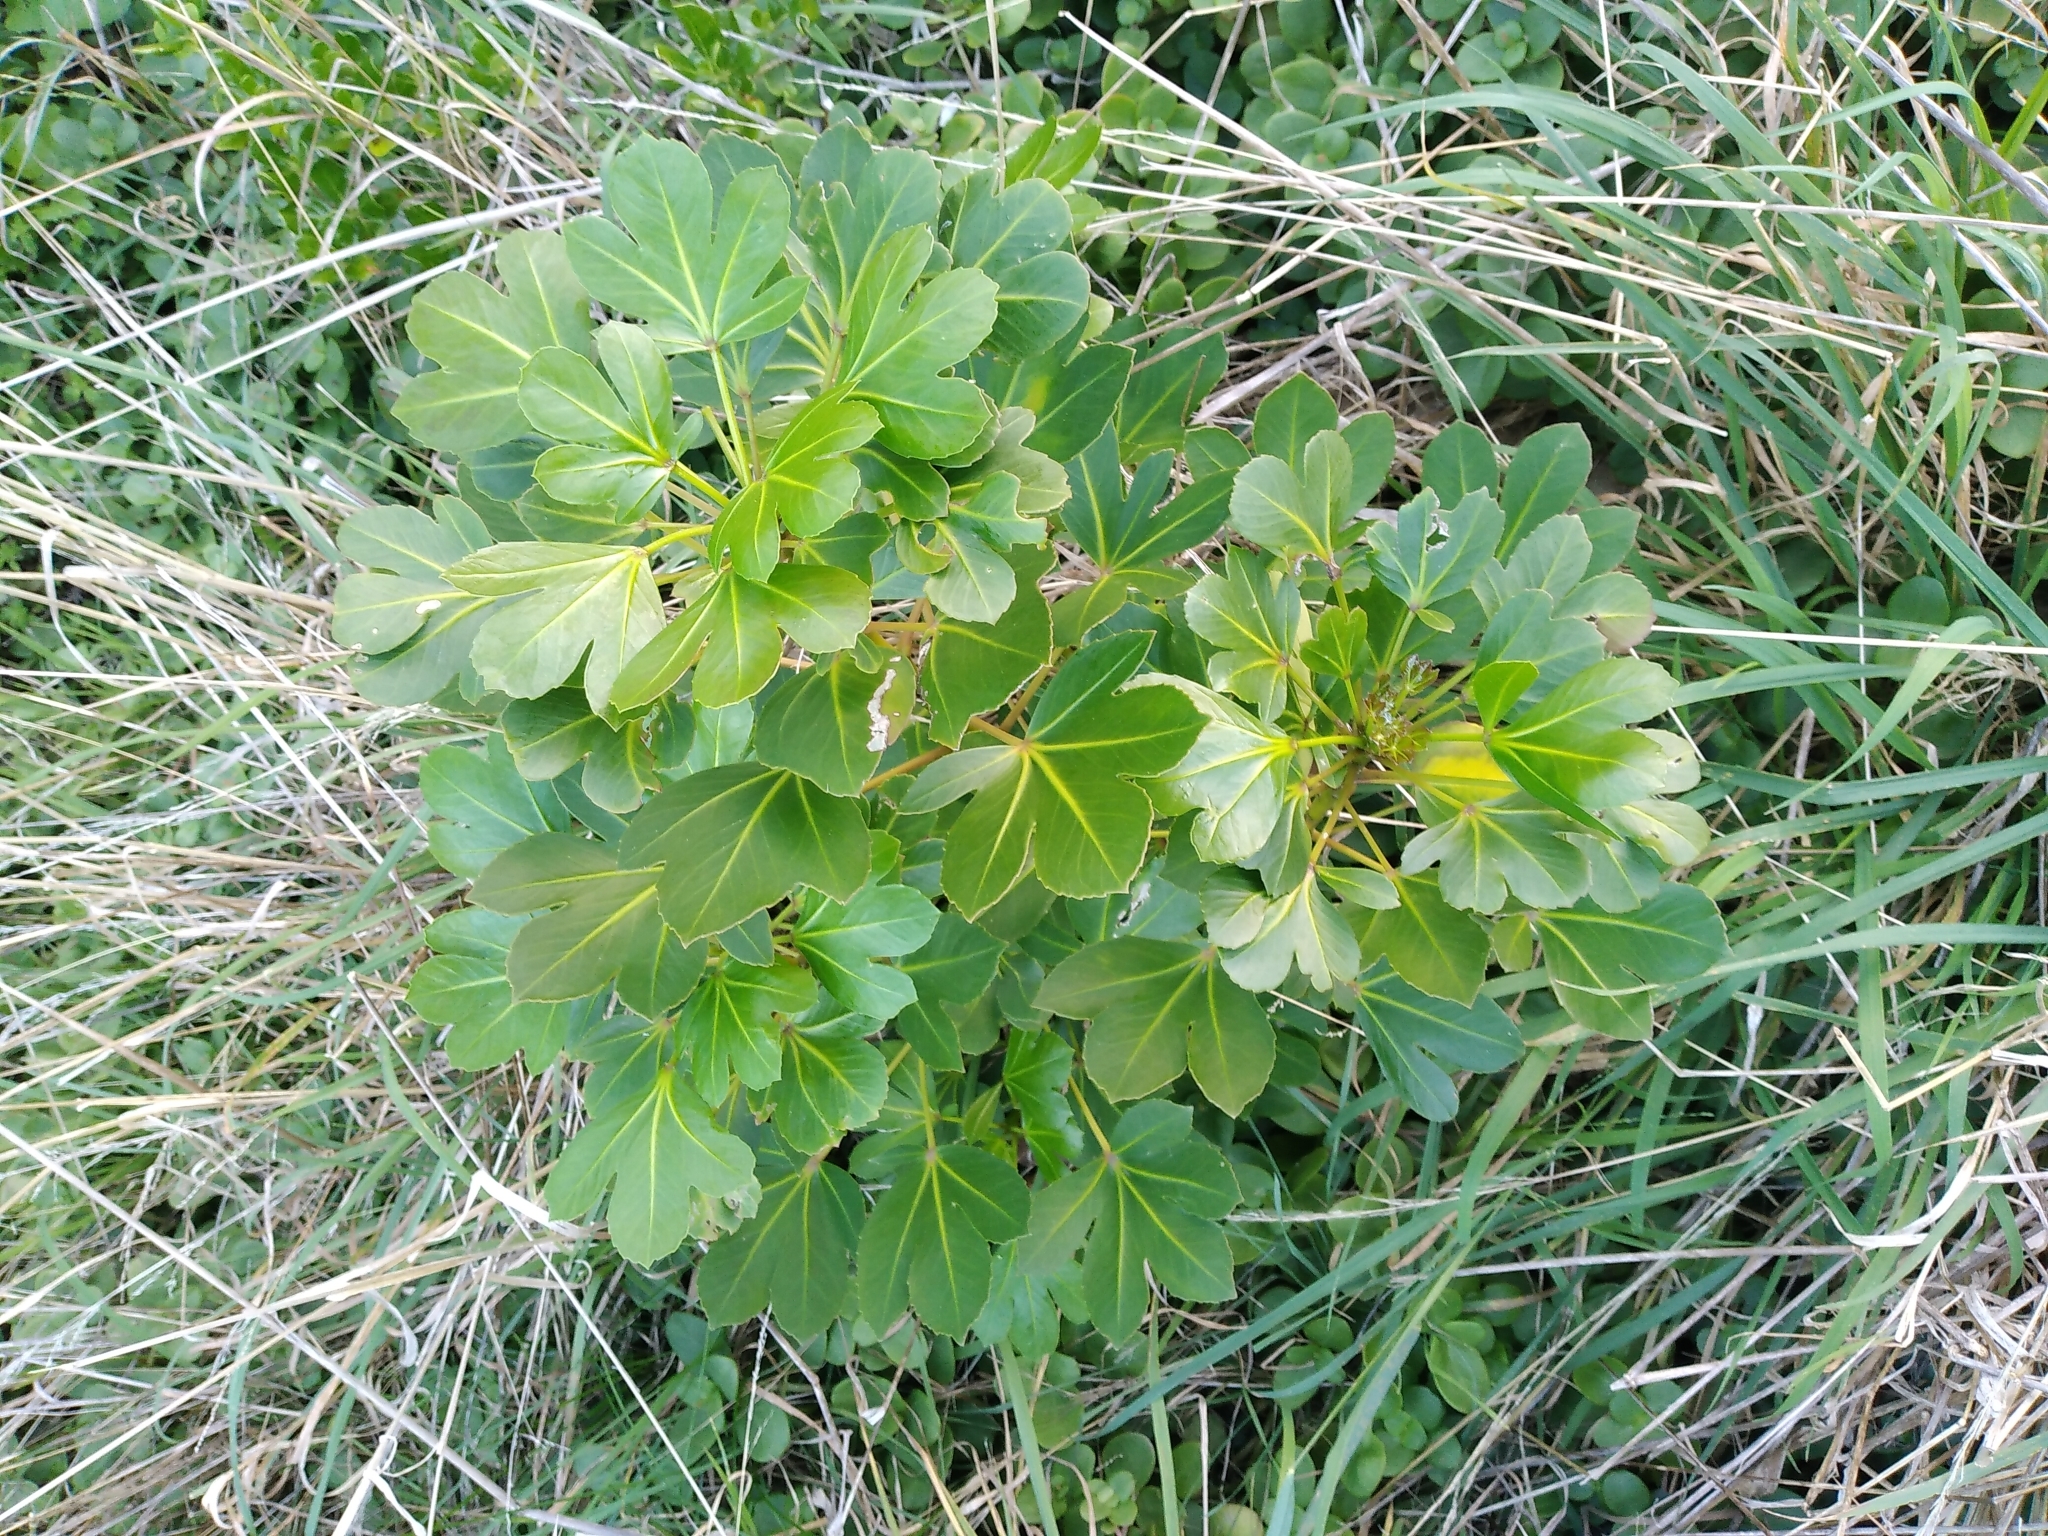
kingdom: Plantae
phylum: Tracheophyta
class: Magnoliopsida
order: Apiales
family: Araliaceae
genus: Pseudopanax
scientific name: Pseudopanax
